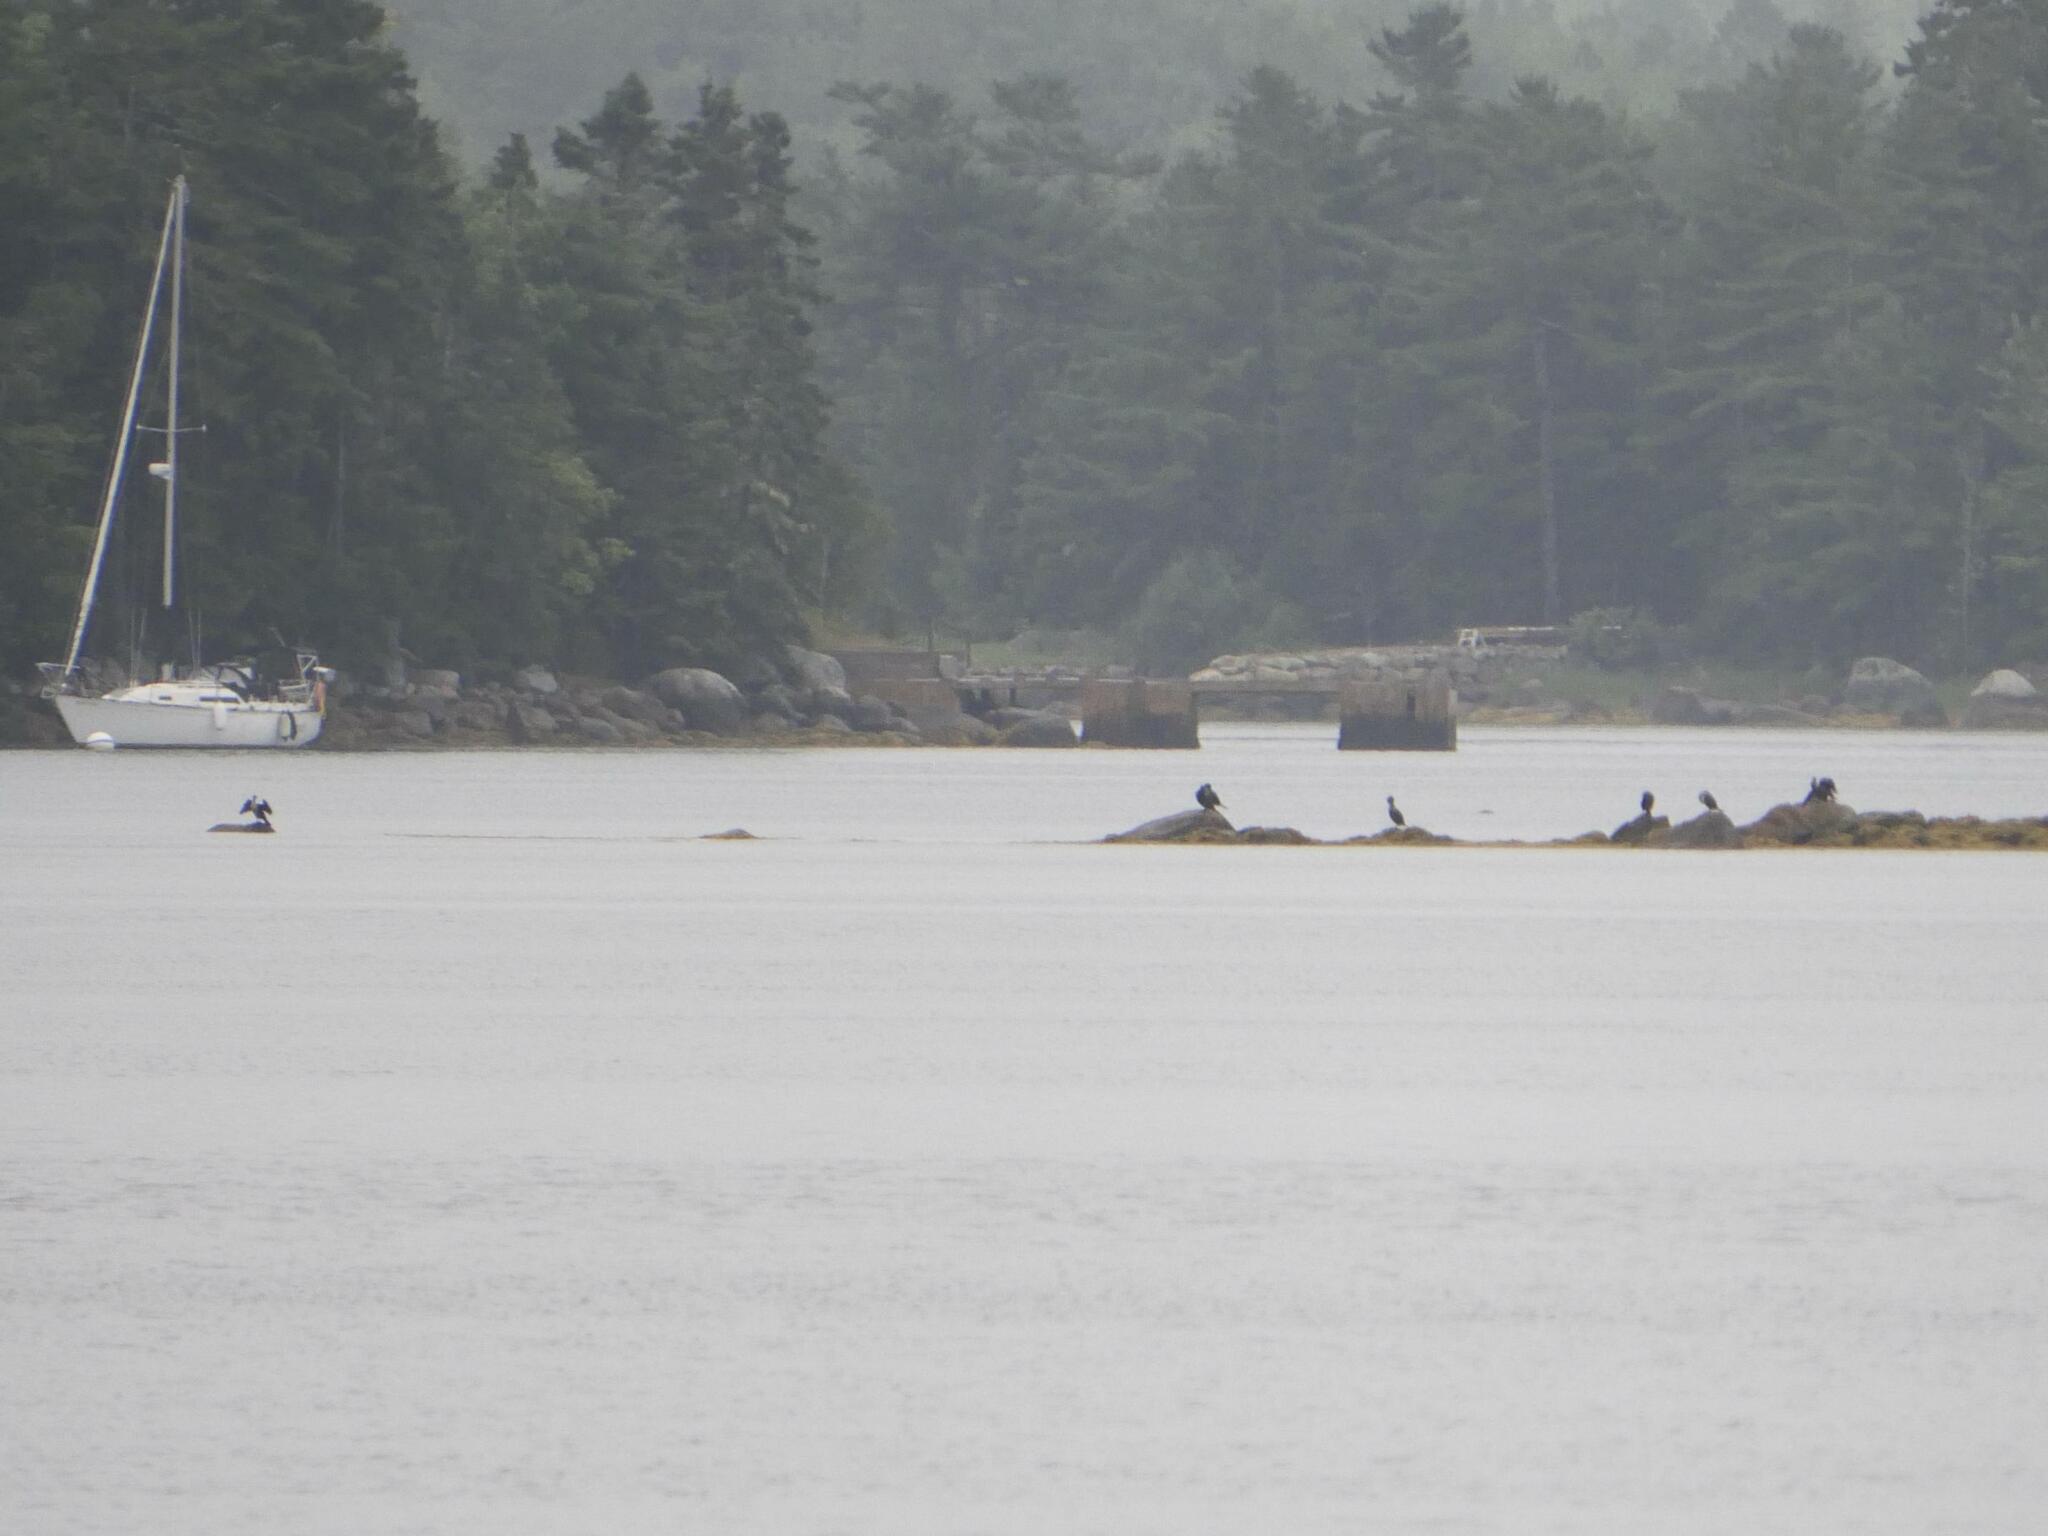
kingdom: Animalia
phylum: Chordata
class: Aves
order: Suliformes
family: Phalacrocoracidae
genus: Phalacrocorax
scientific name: Phalacrocorax auritus
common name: Double-crested cormorant
